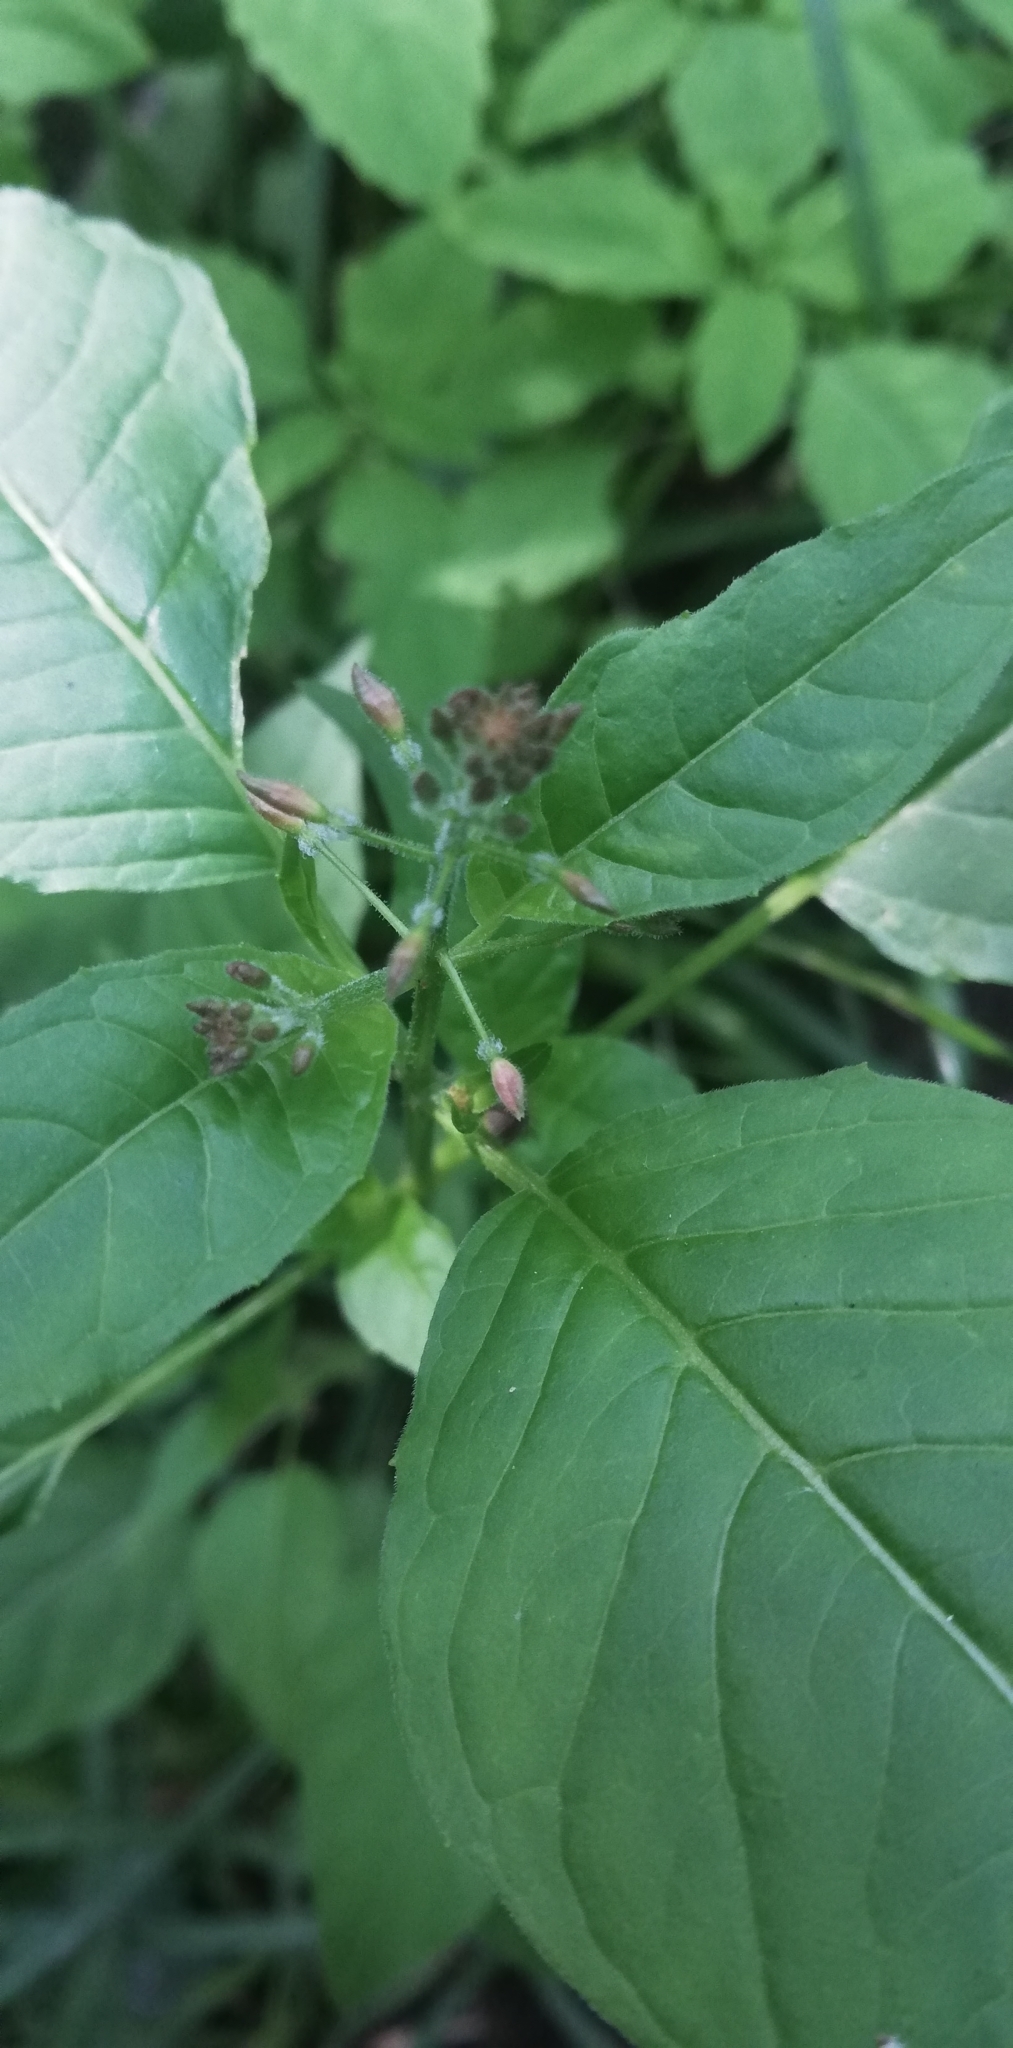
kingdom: Plantae
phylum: Tracheophyta
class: Magnoliopsida
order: Myrtales
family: Onagraceae
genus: Circaea
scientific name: Circaea lutetiana
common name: Enchanter's-nightshade
